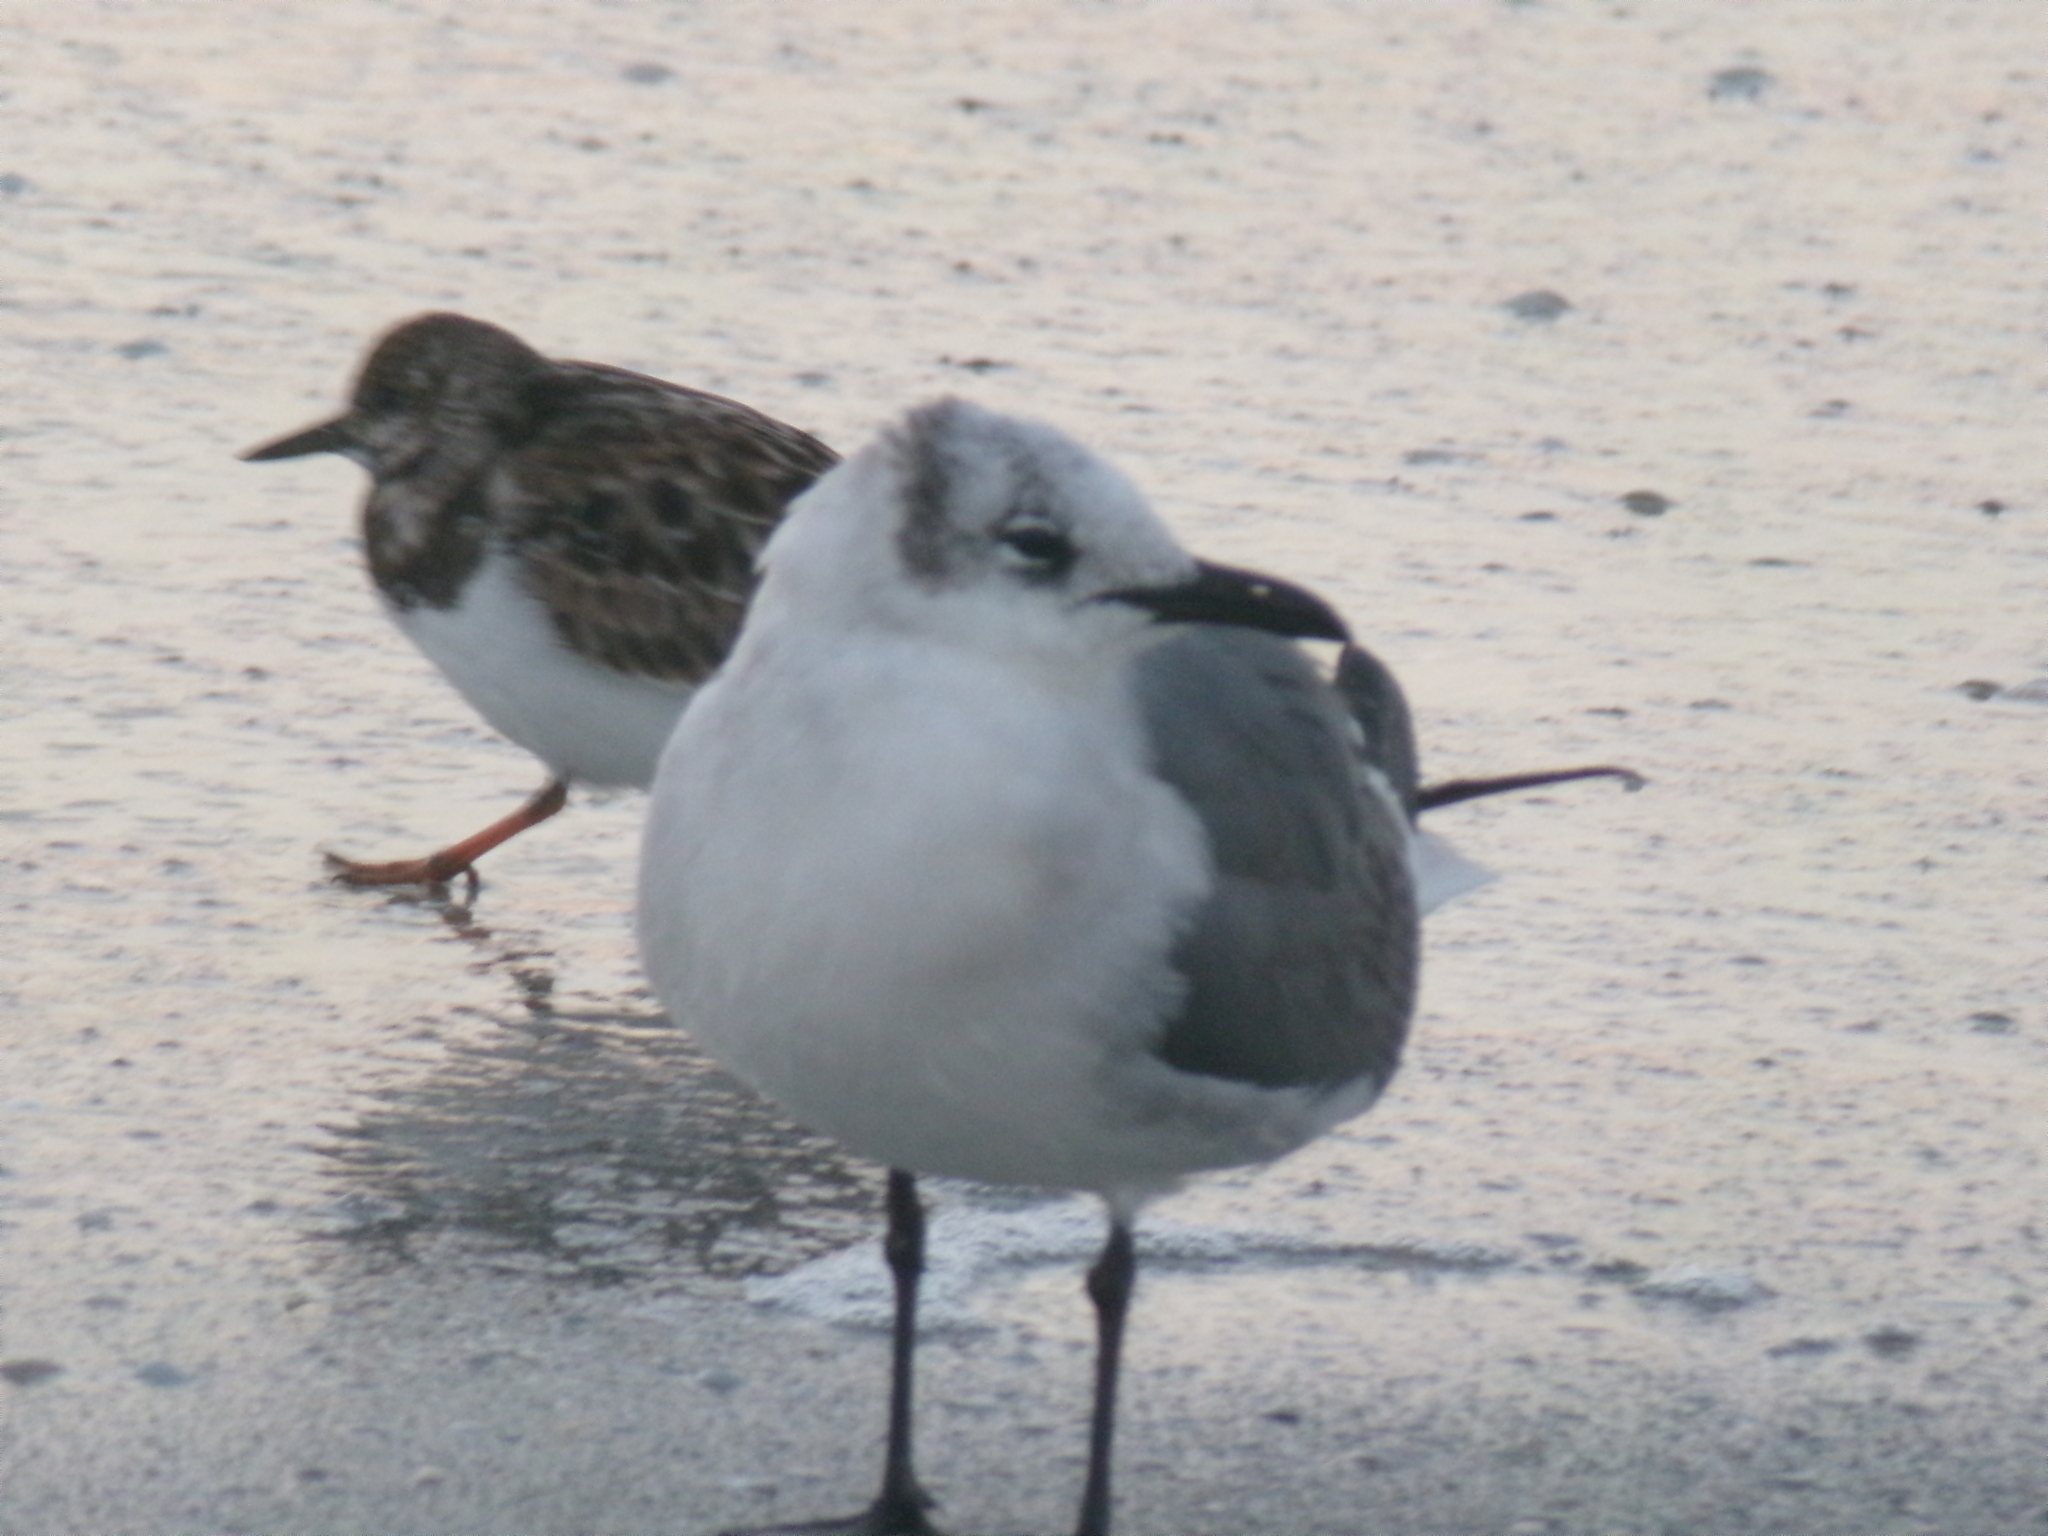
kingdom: Animalia
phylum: Chordata
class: Aves
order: Charadriiformes
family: Laridae
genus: Leucophaeus
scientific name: Leucophaeus atricilla
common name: Laughing gull
